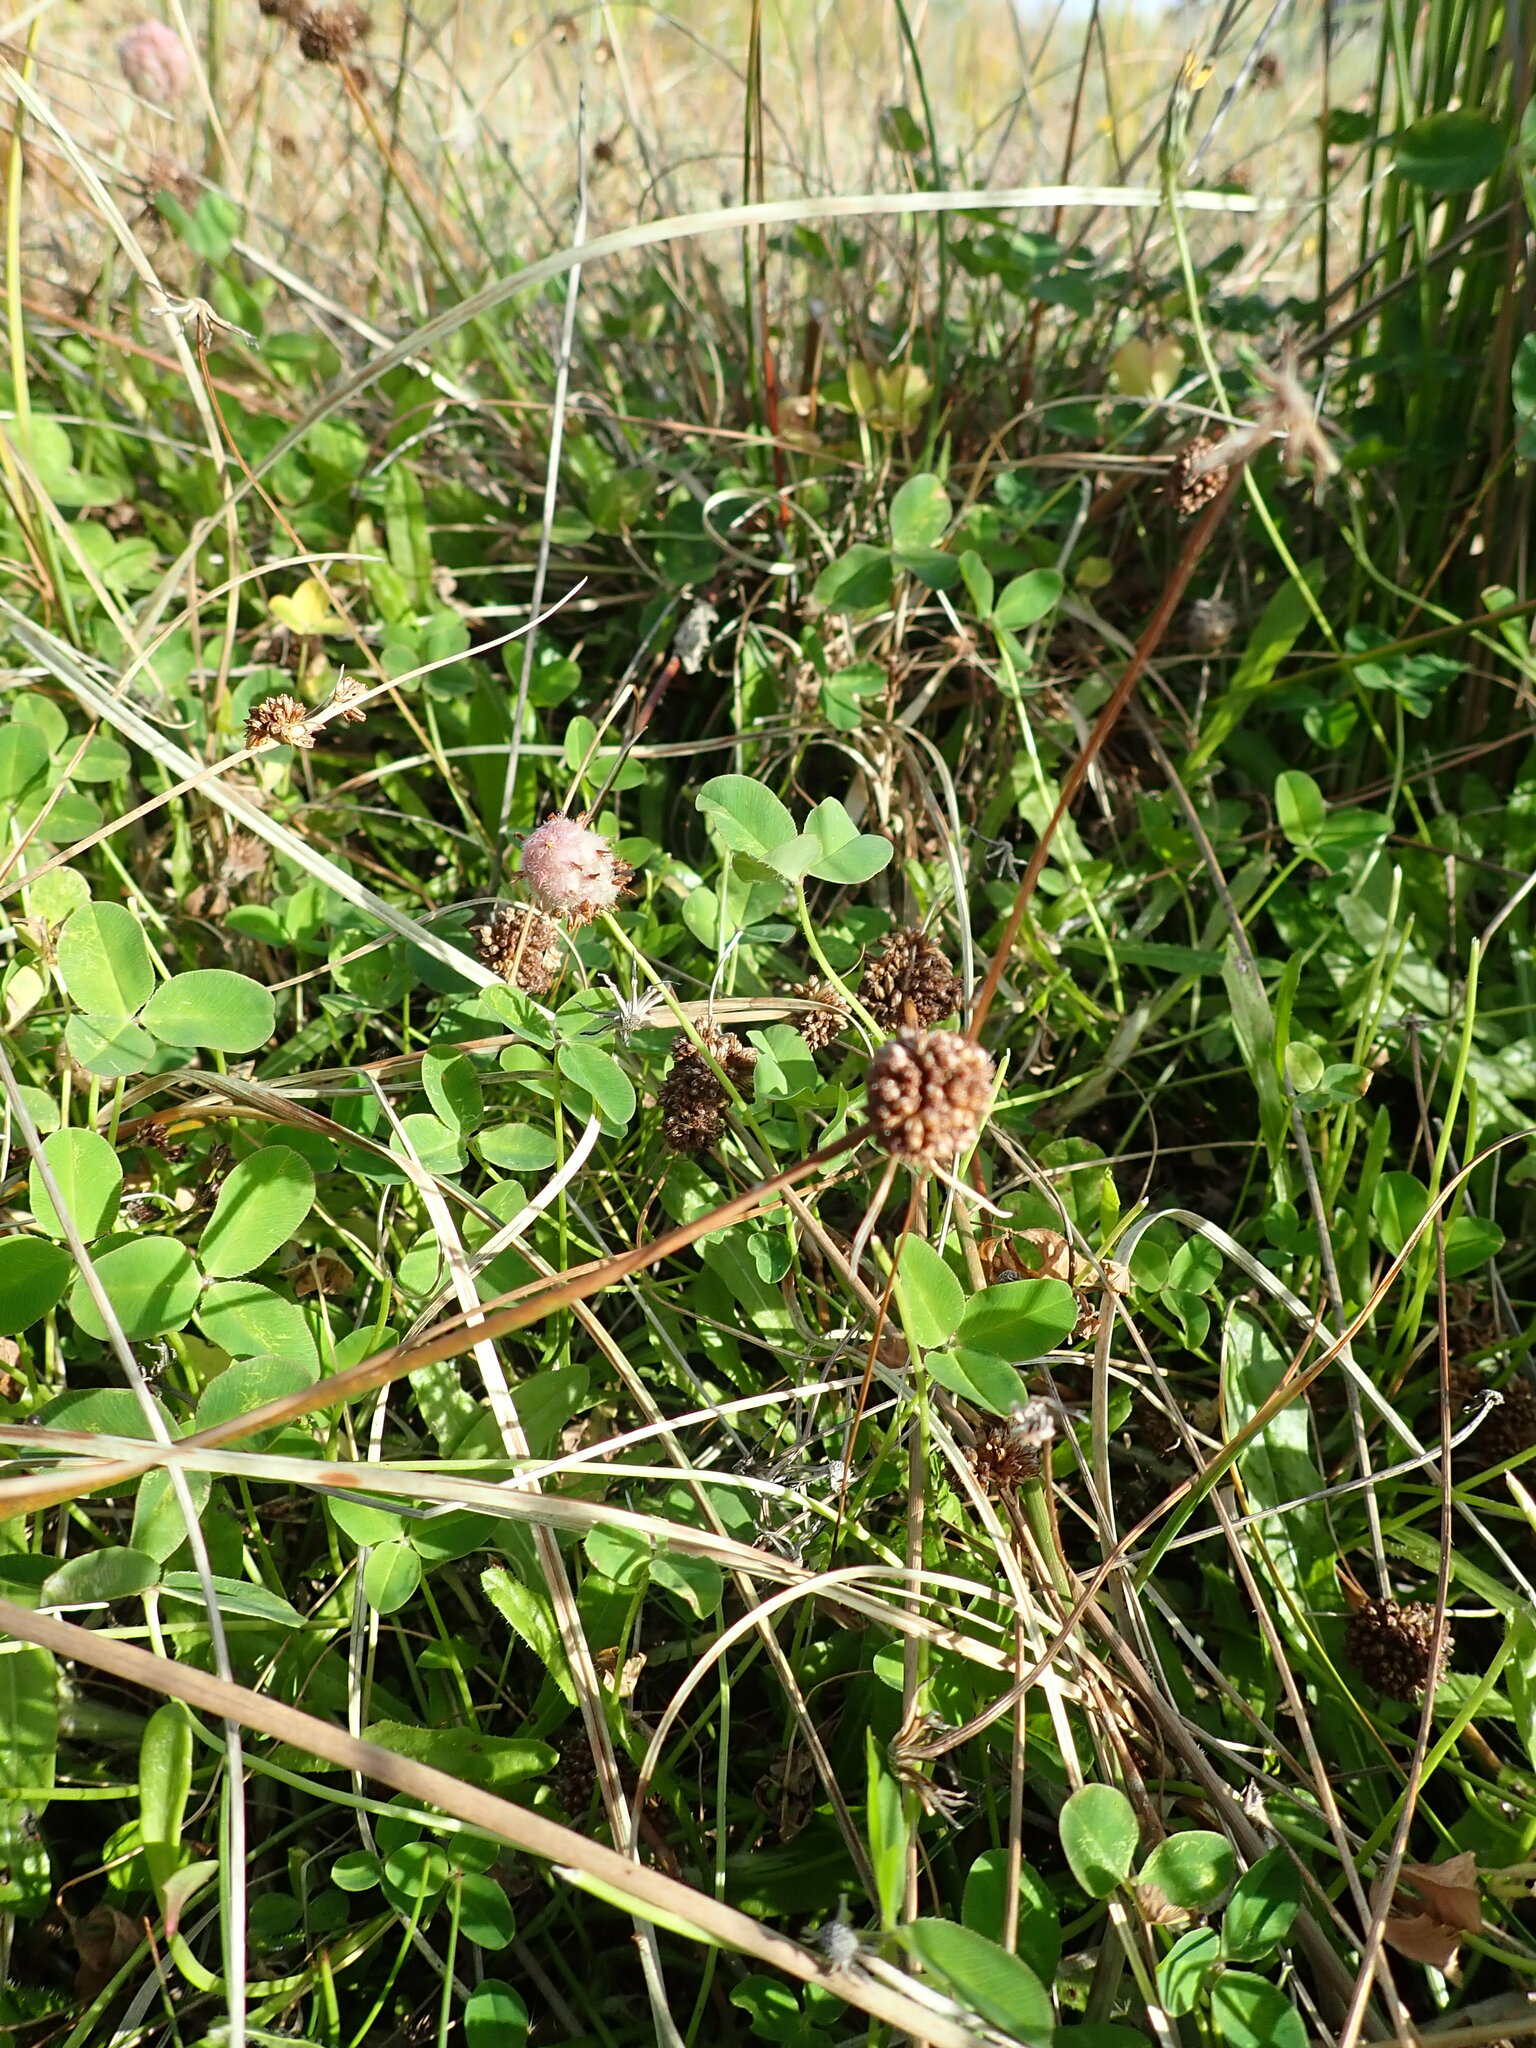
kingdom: Plantae
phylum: Tracheophyta
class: Magnoliopsida
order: Fabales
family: Fabaceae
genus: Trifolium
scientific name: Trifolium fragiferum
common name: Strawberry clover
